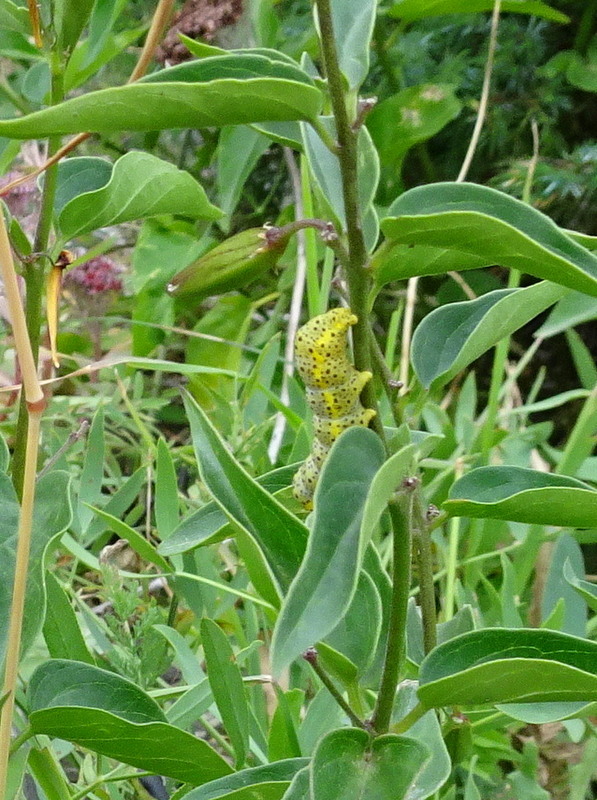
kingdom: Animalia
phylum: Arthropoda
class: Insecta
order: Lepidoptera
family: Noctuidae
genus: Abrostola
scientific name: Abrostola asclepiadis
